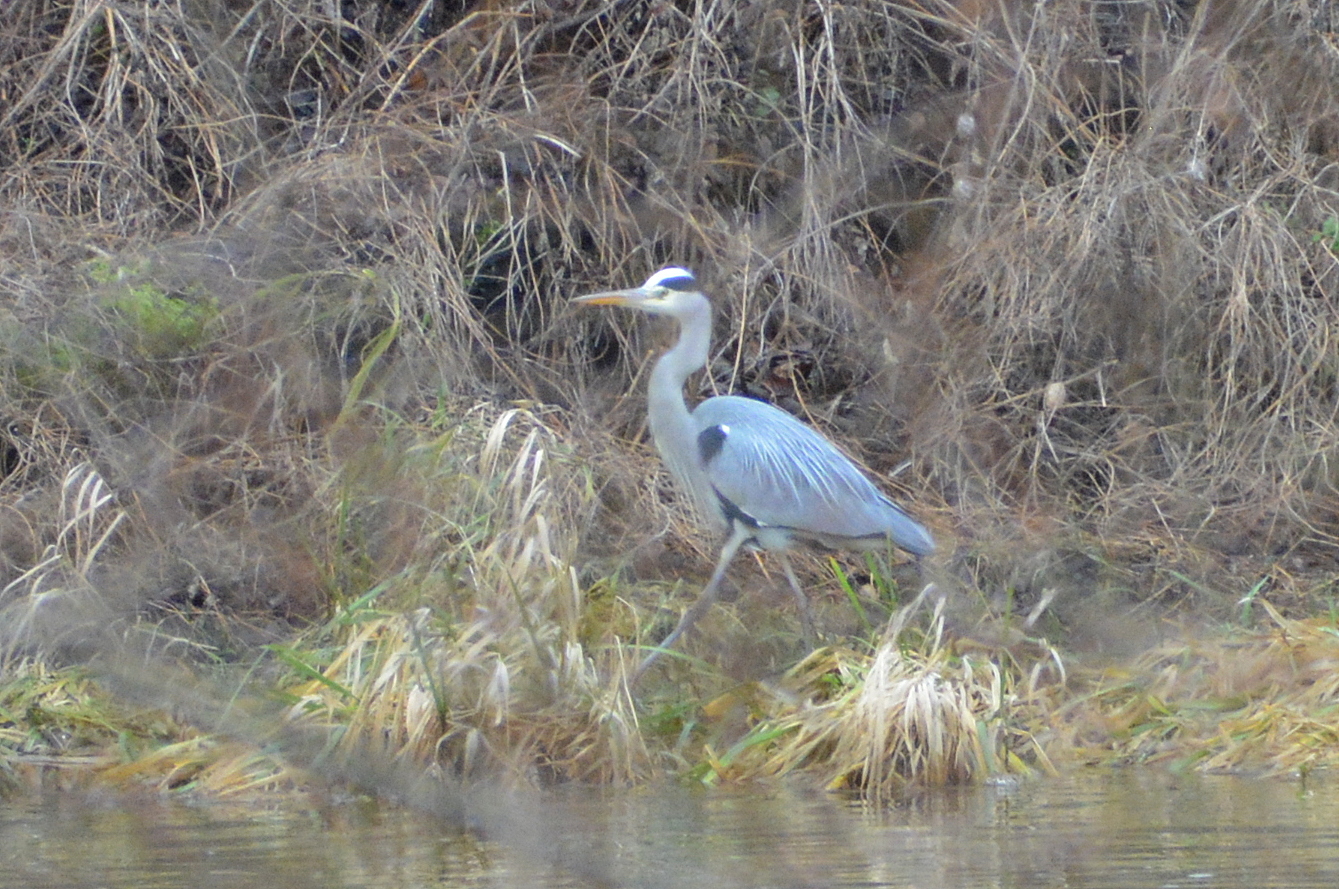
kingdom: Animalia
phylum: Chordata
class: Aves
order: Pelecaniformes
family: Ardeidae
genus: Ardea
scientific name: Ardea cinerea
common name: Grey heron
